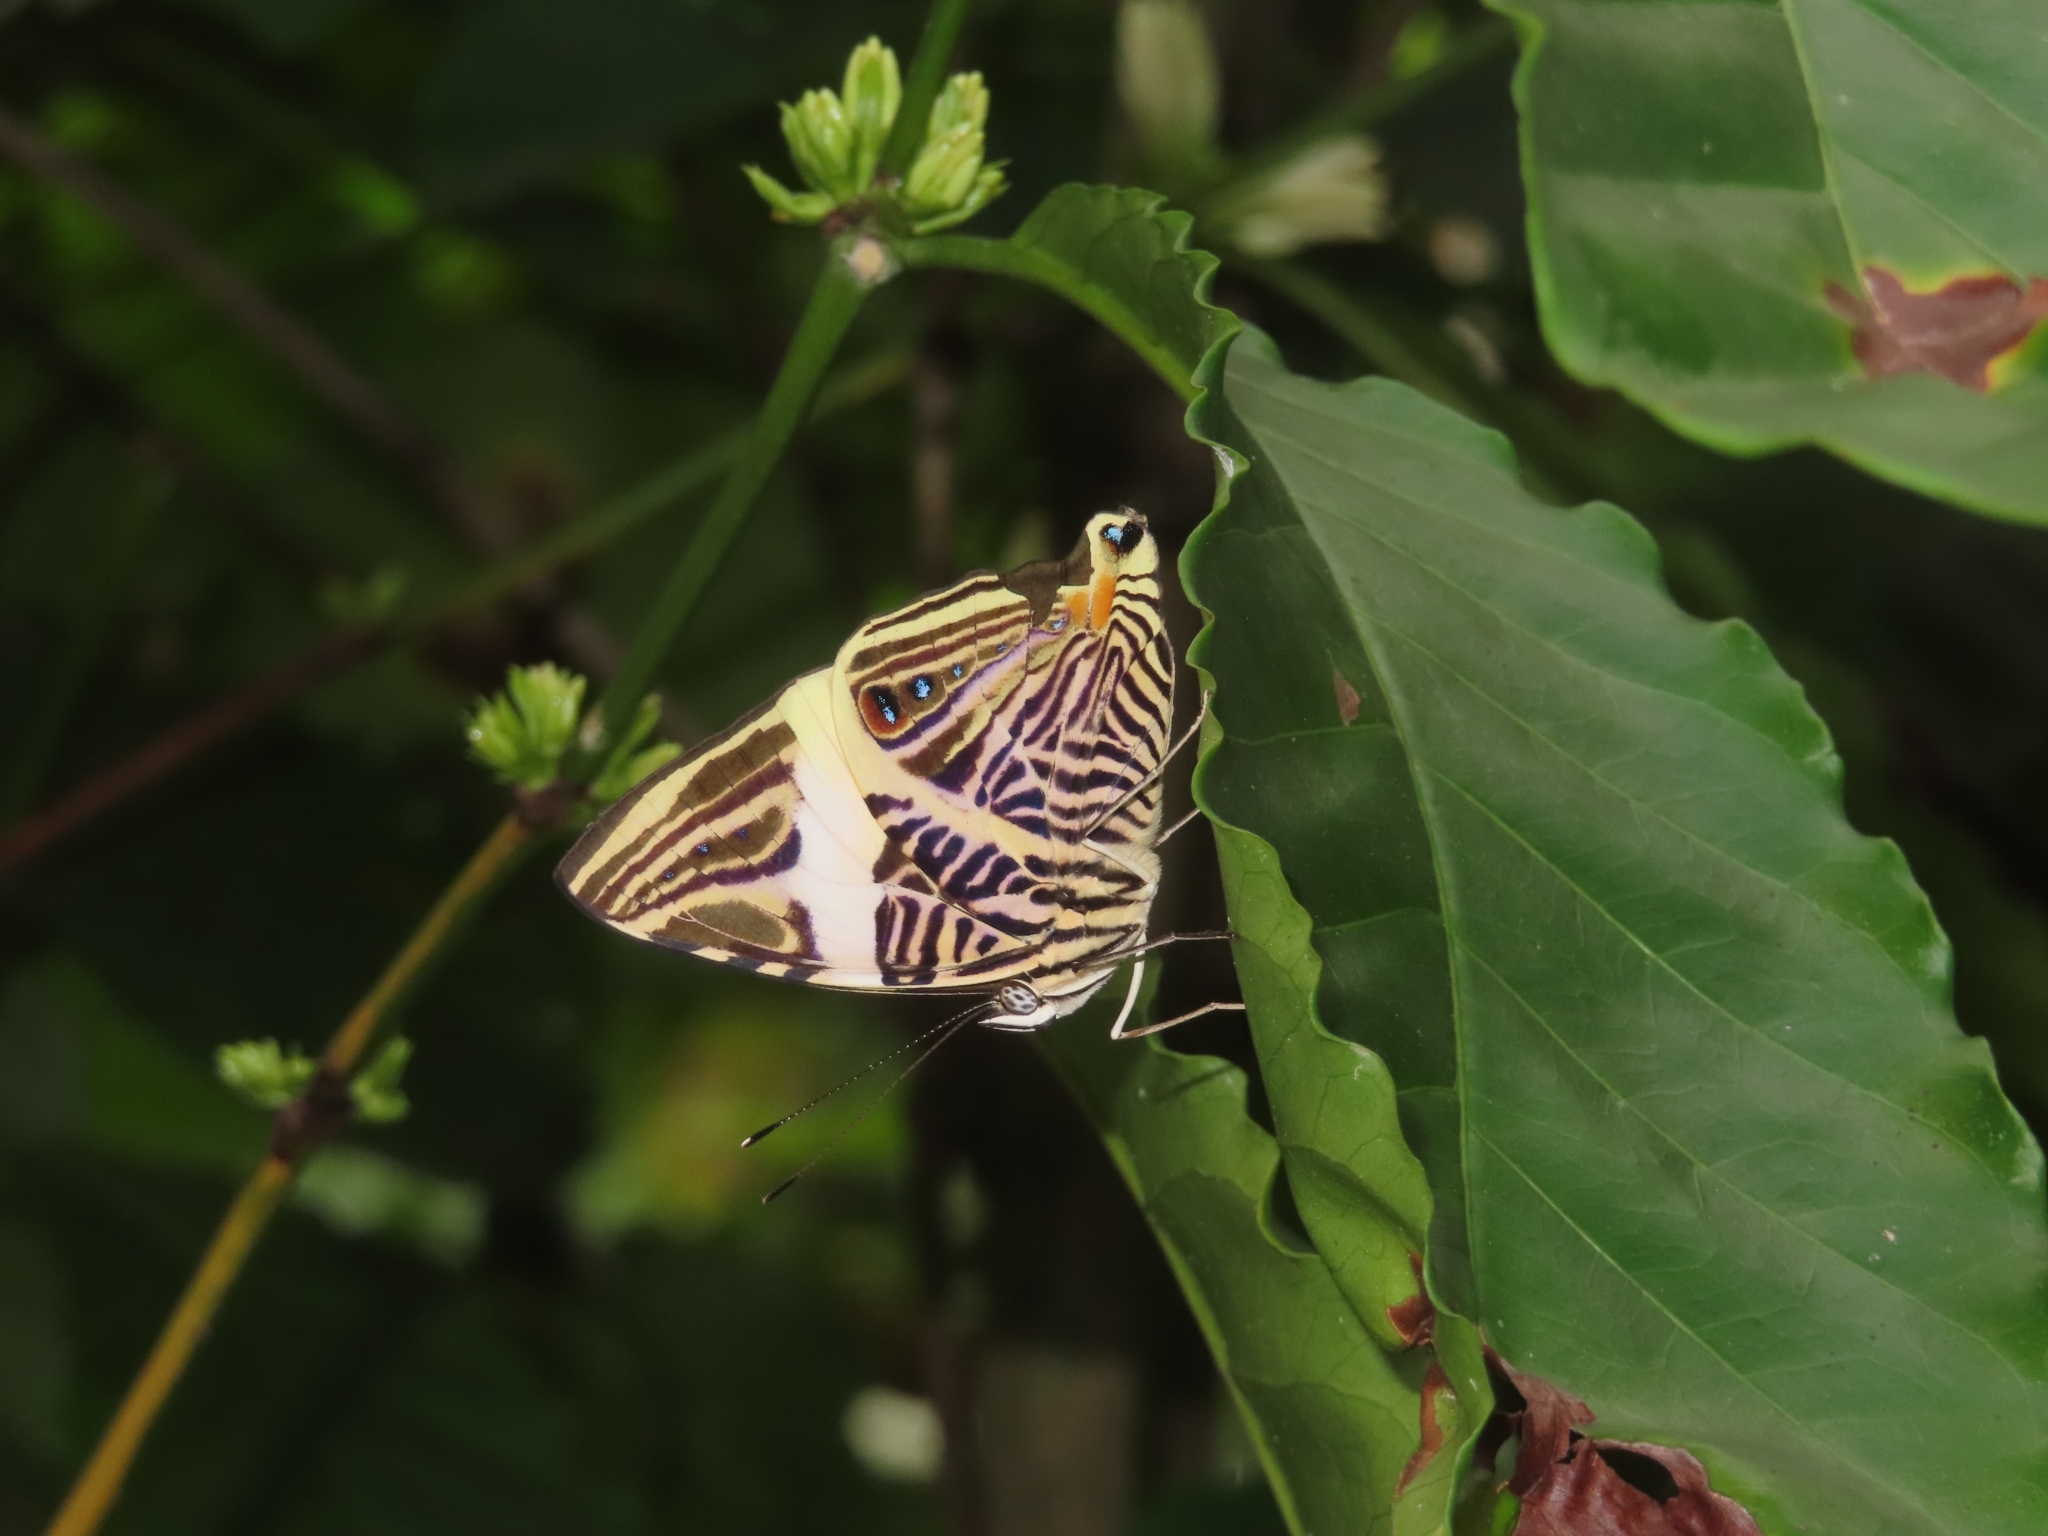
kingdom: Animalia
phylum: Arthropoda
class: Insecta
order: Lepidoptera
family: Nymphalidae
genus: Colobura
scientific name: Colobura dirce
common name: Dirce beauty
